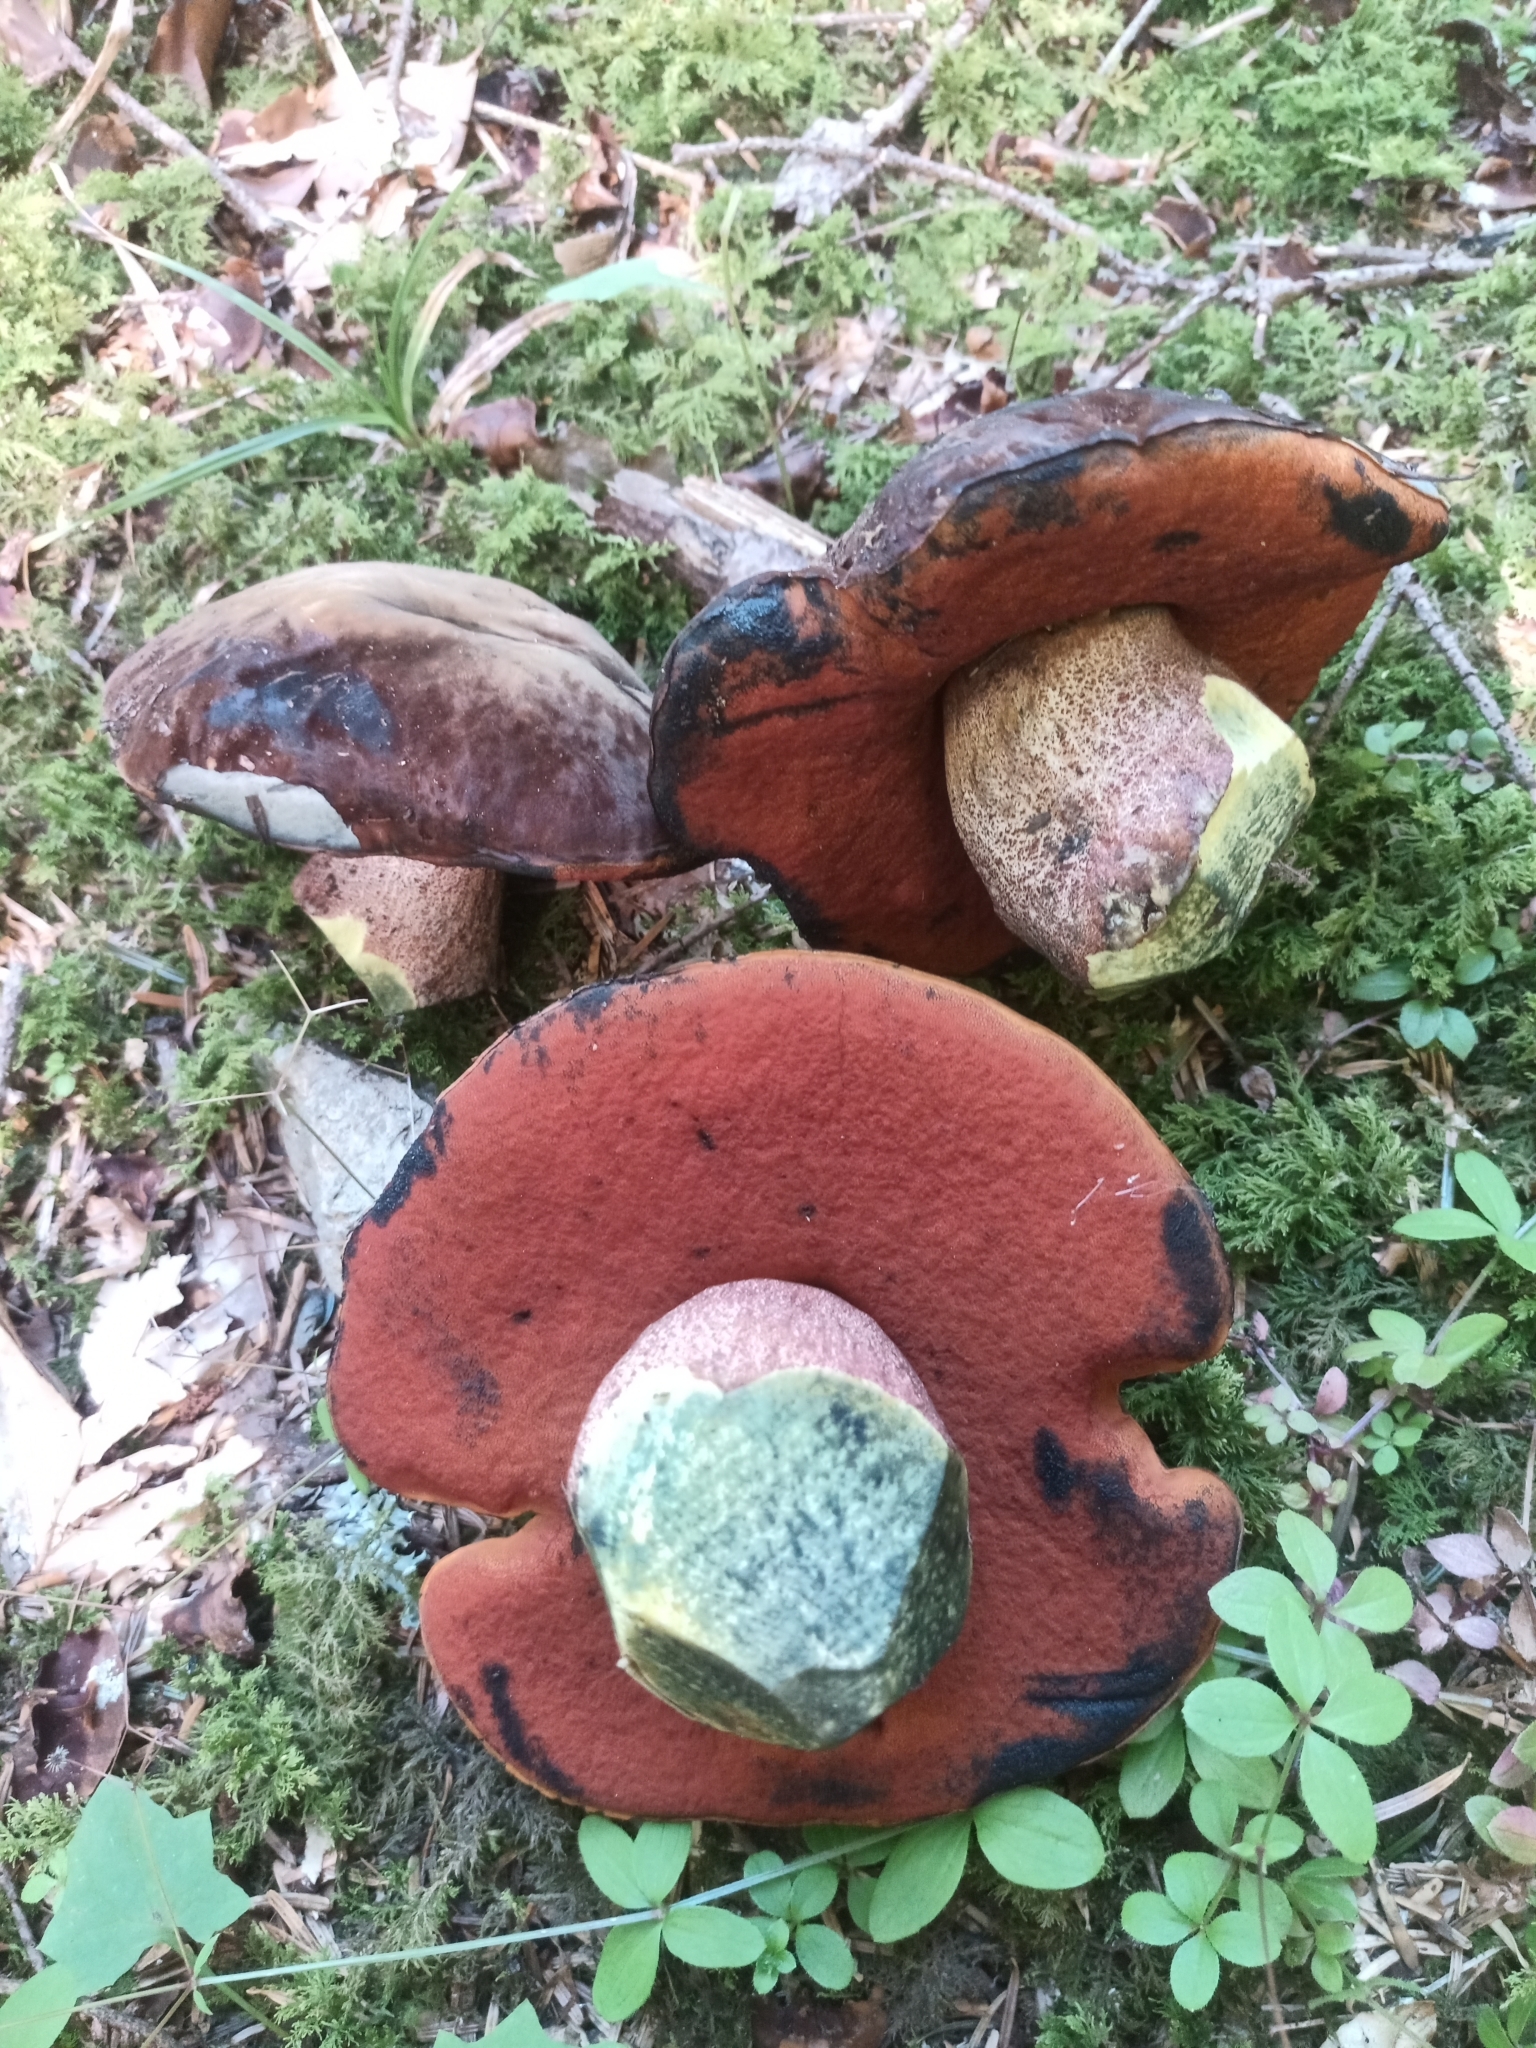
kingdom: Fungi
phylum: Basidiomycota
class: Agaricomycetes
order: Boletales
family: Boletaceae
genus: Neoboletus
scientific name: Neoboletus erythropus
